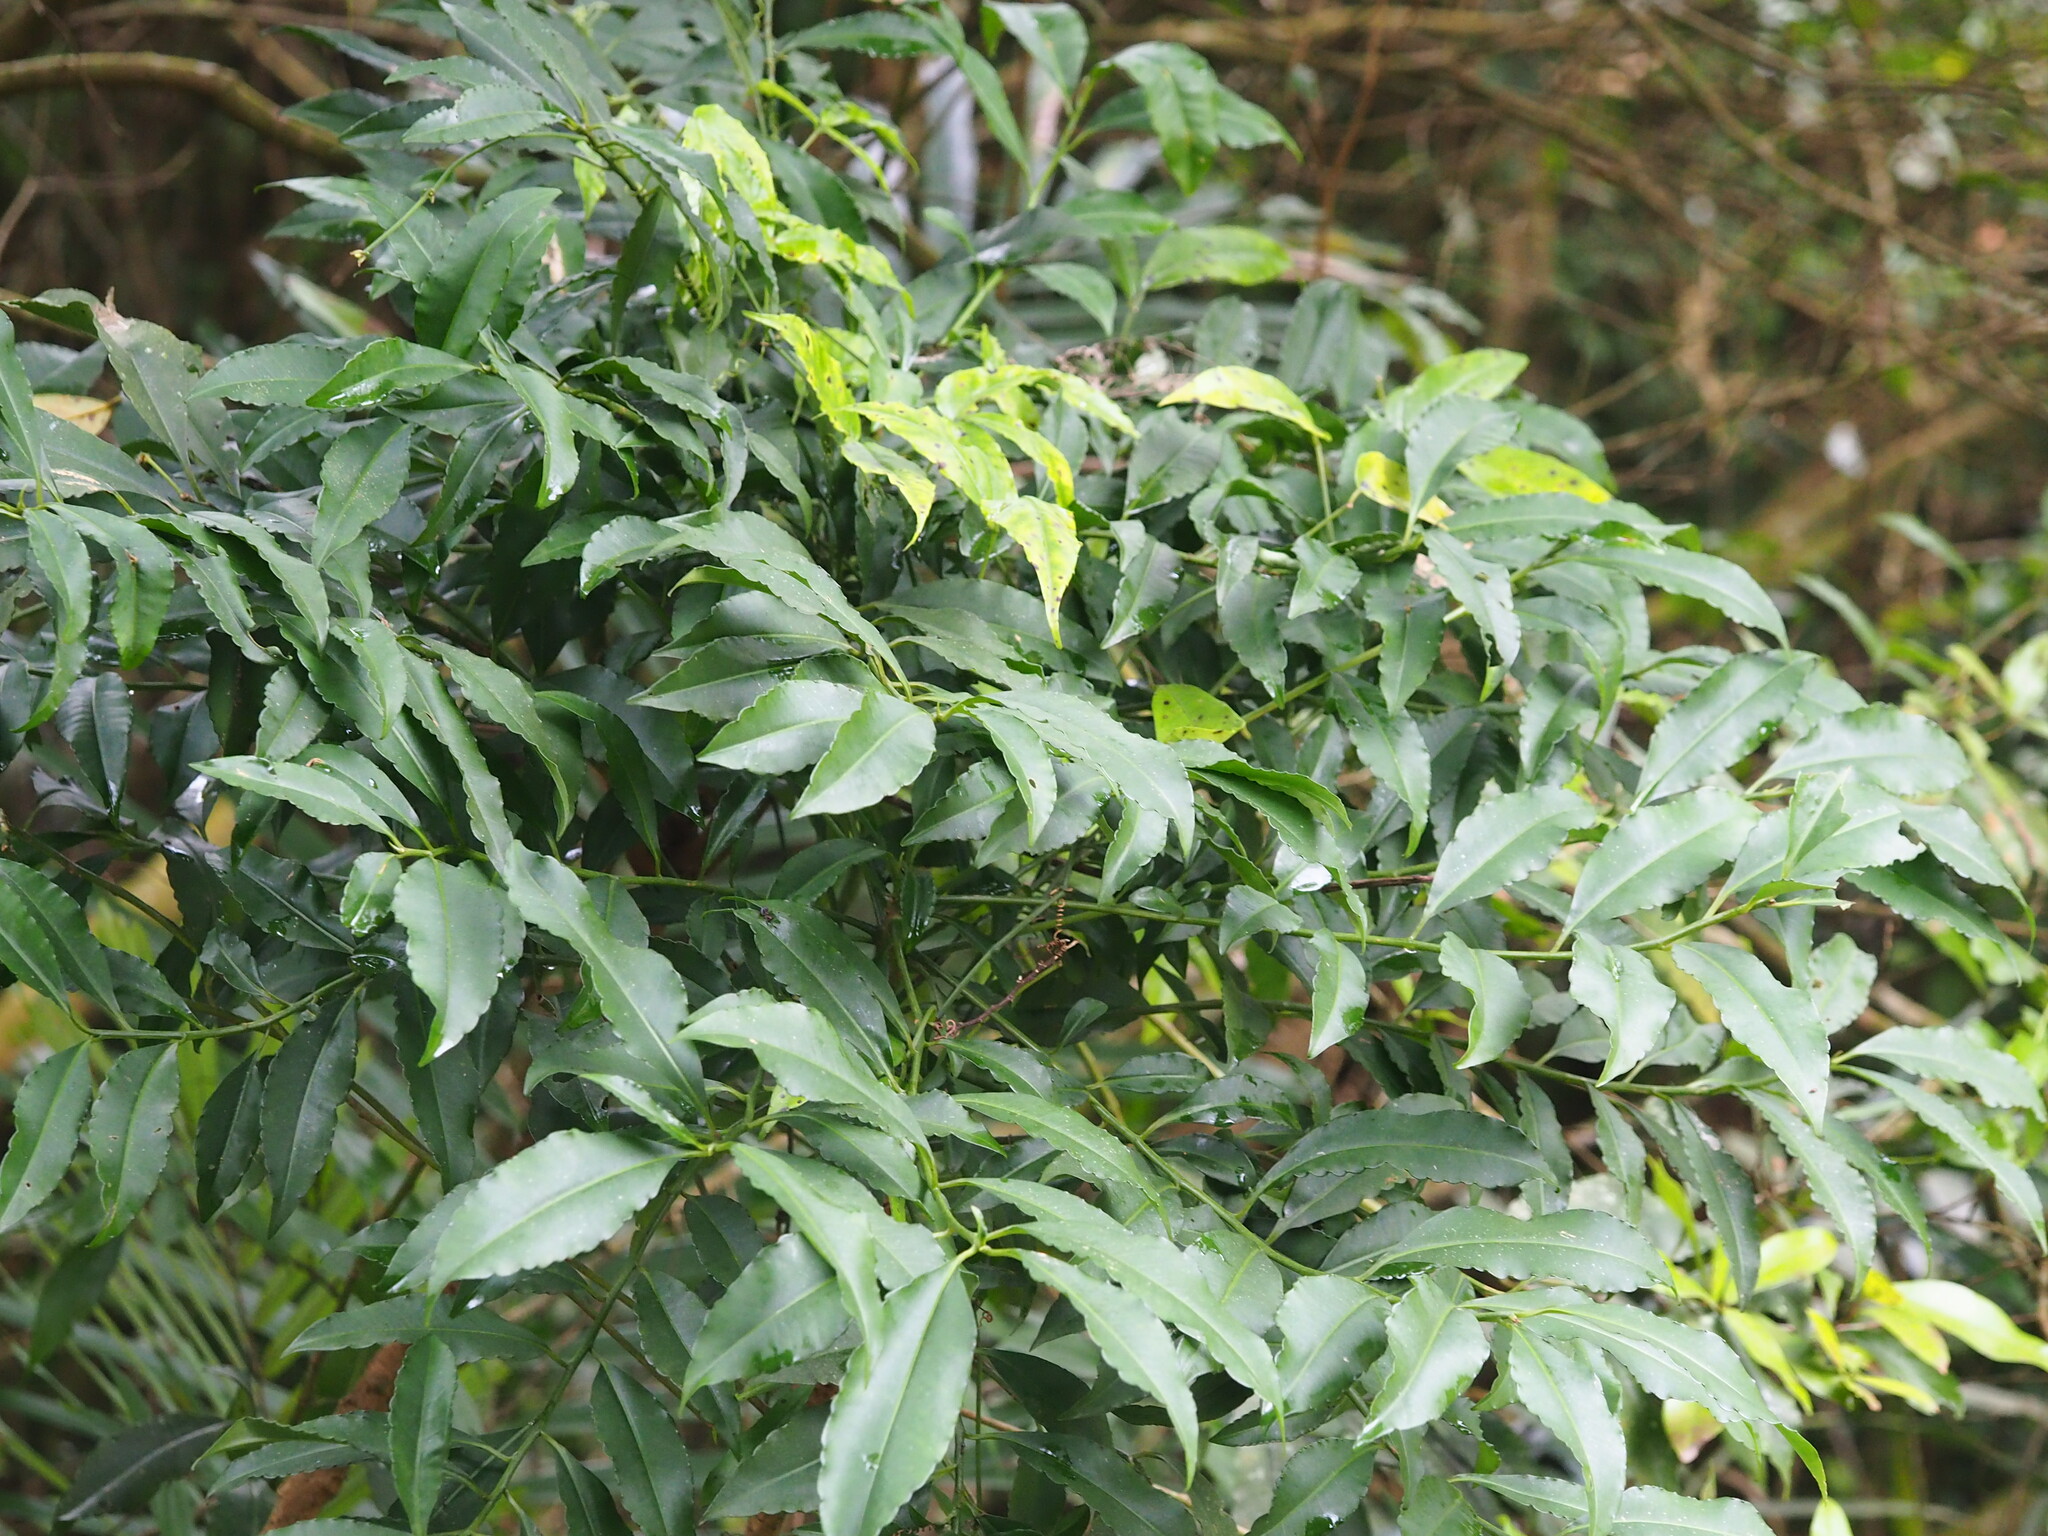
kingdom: Plantae
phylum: Tracheophyta
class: Magnoliopsida
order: Ericales
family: Primulaceae
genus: Ardisia
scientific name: Ardisia polysticta
